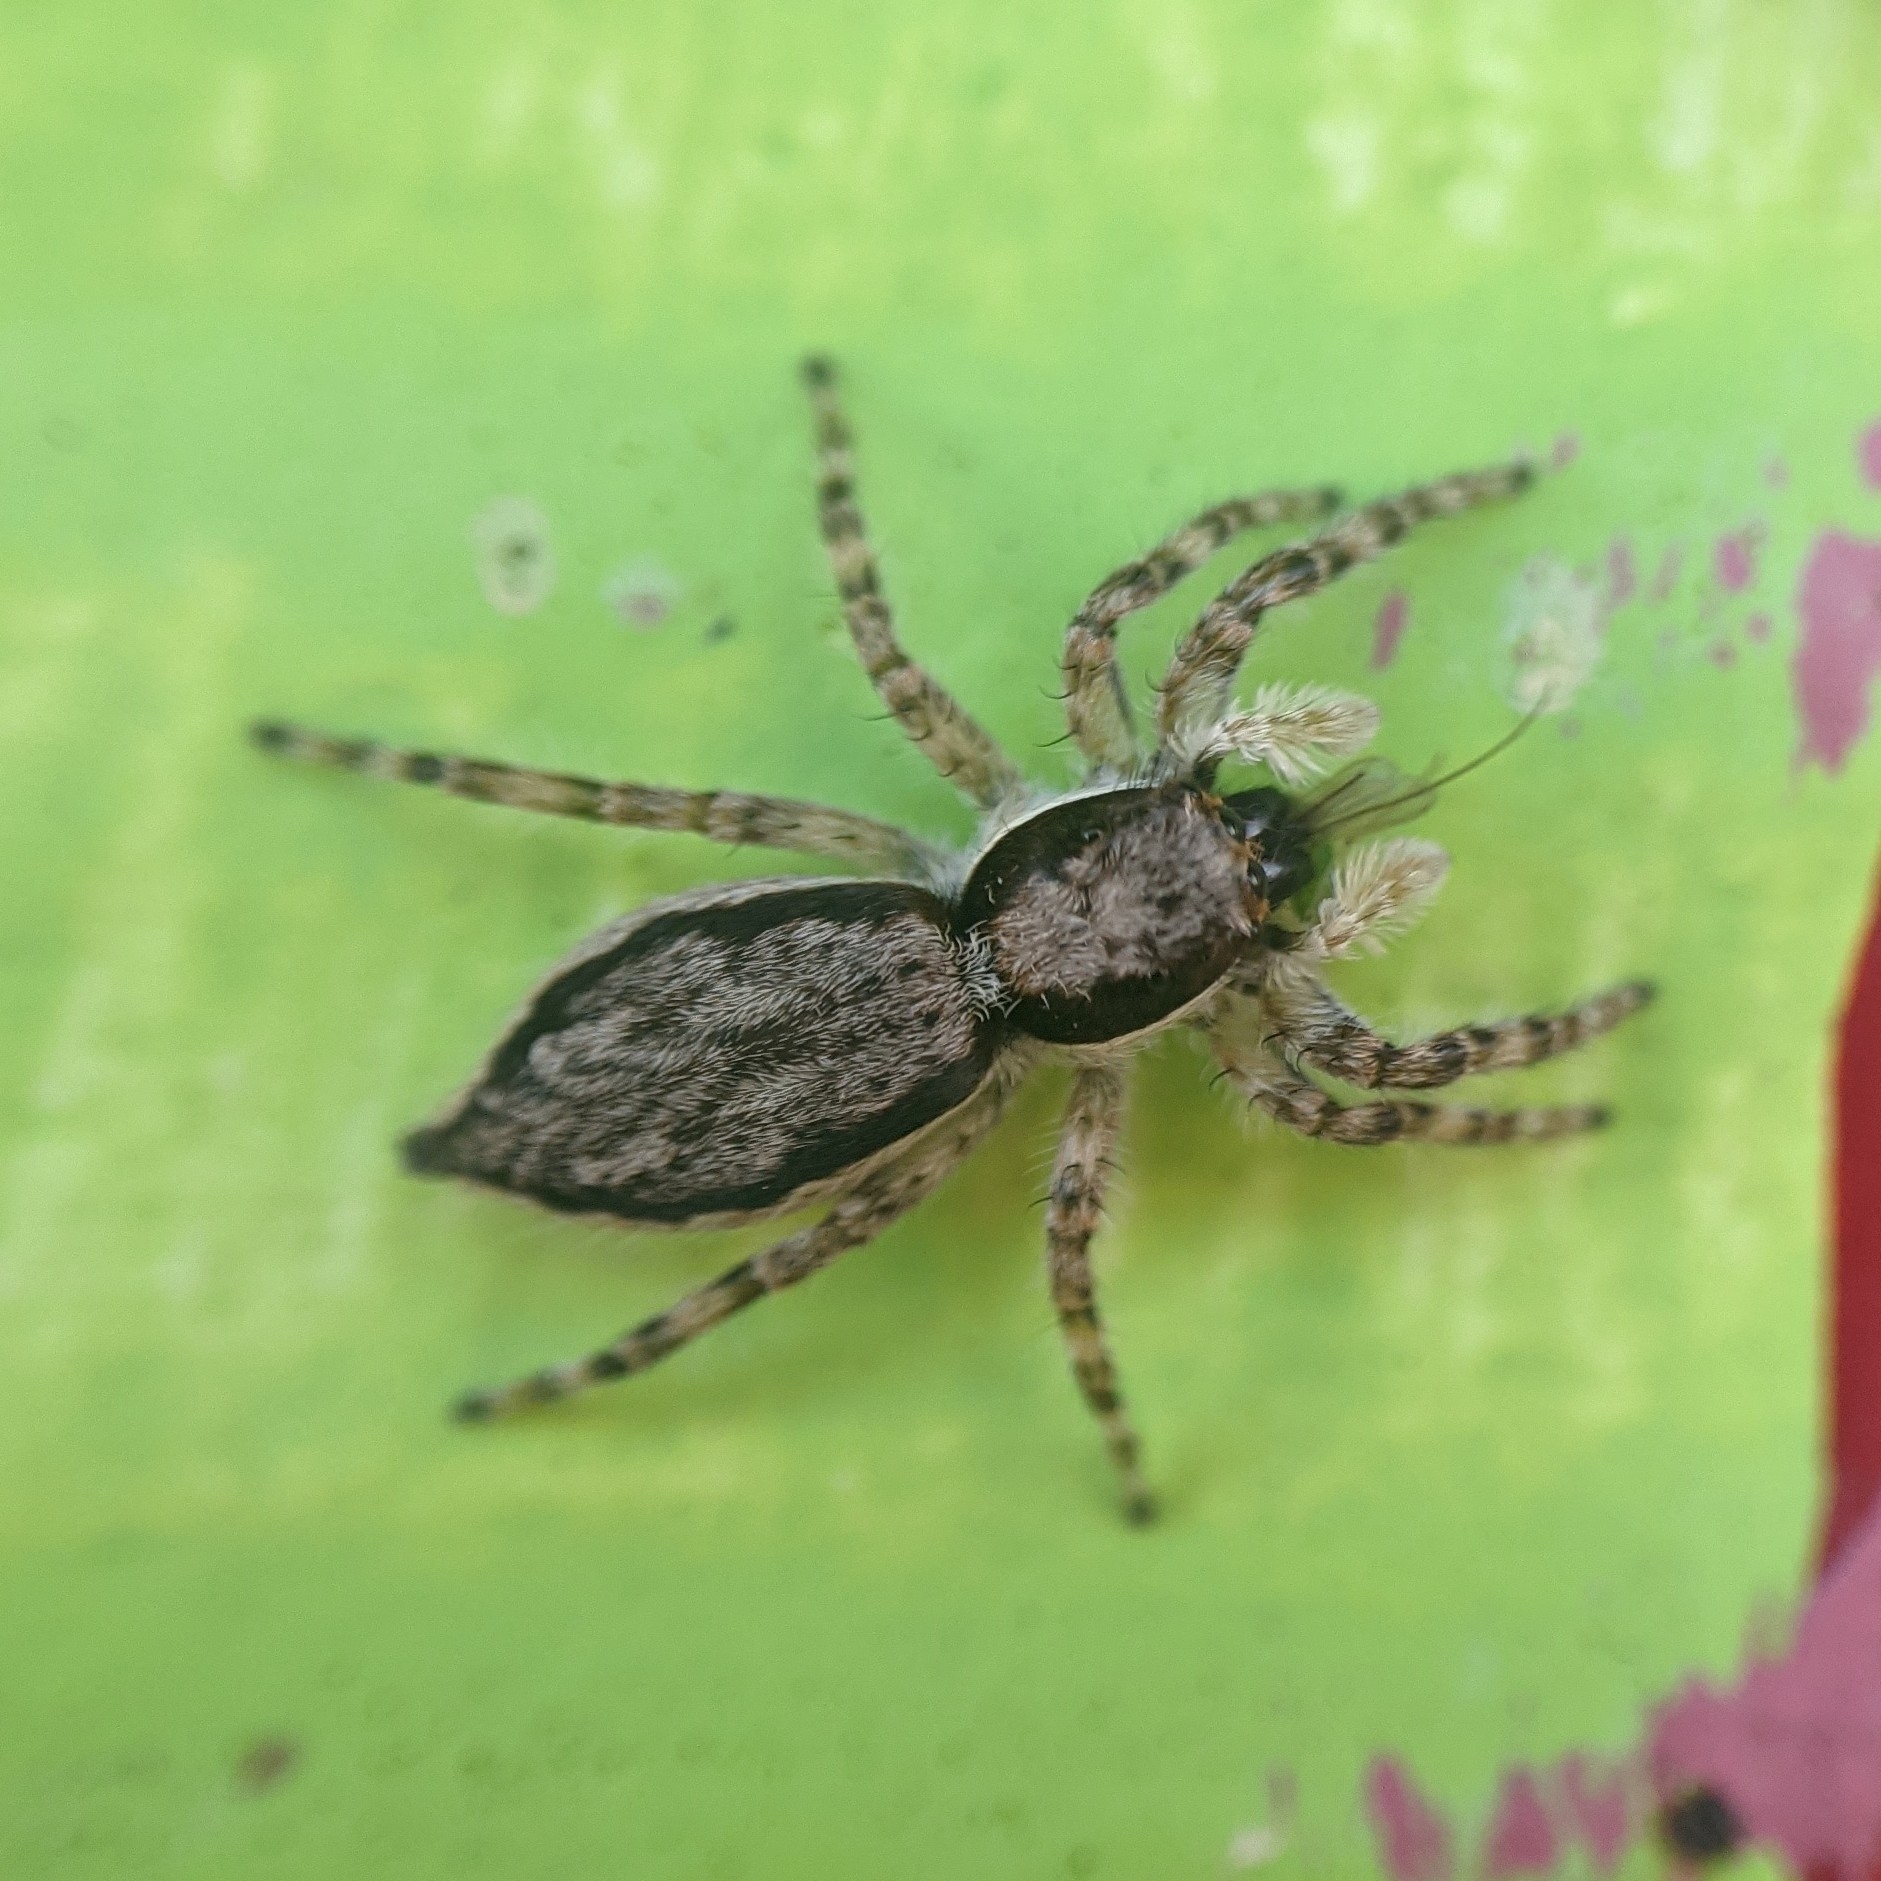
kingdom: Animalia
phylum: Arthropoda
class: Arachnida
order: Araneae
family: Salticidae
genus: Menemerus
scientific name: Menemerus bivittatus
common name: Gray wall jumper
